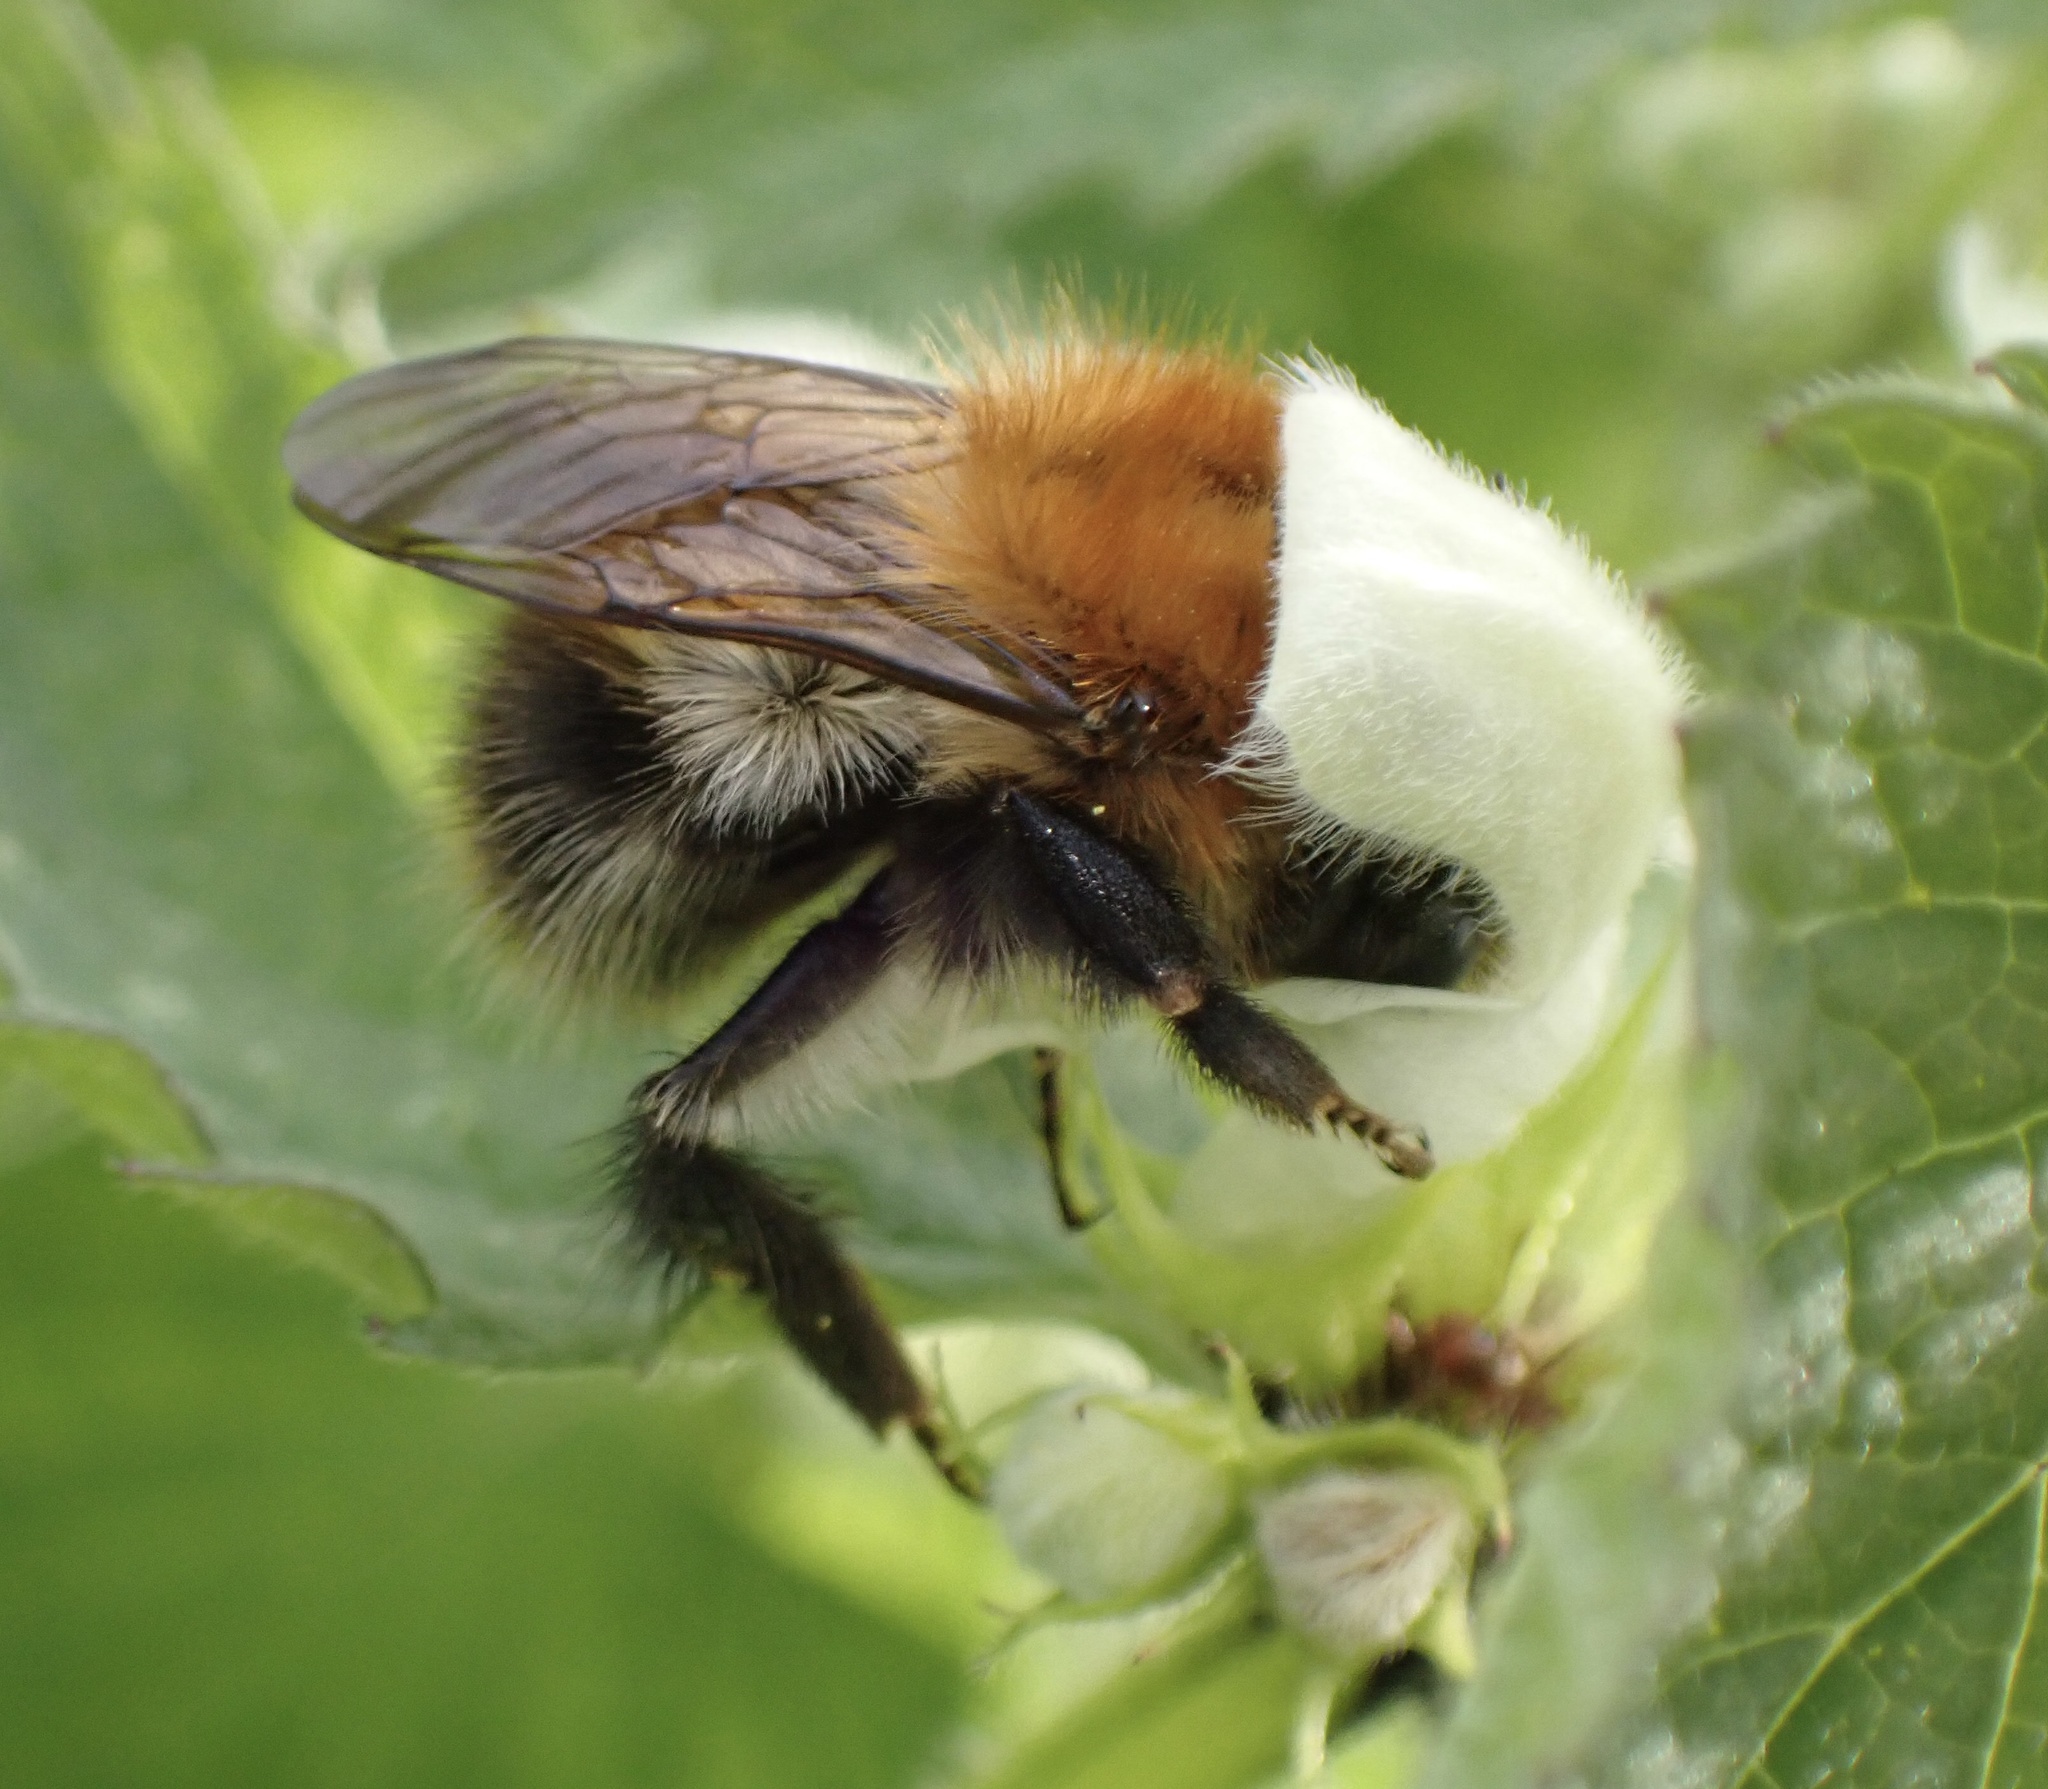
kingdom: Animalia
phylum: Arthropoda
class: Insecta
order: Hymenoptera
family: Apidae
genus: Bombus
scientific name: Bombus pascuorum
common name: Common carder bee
